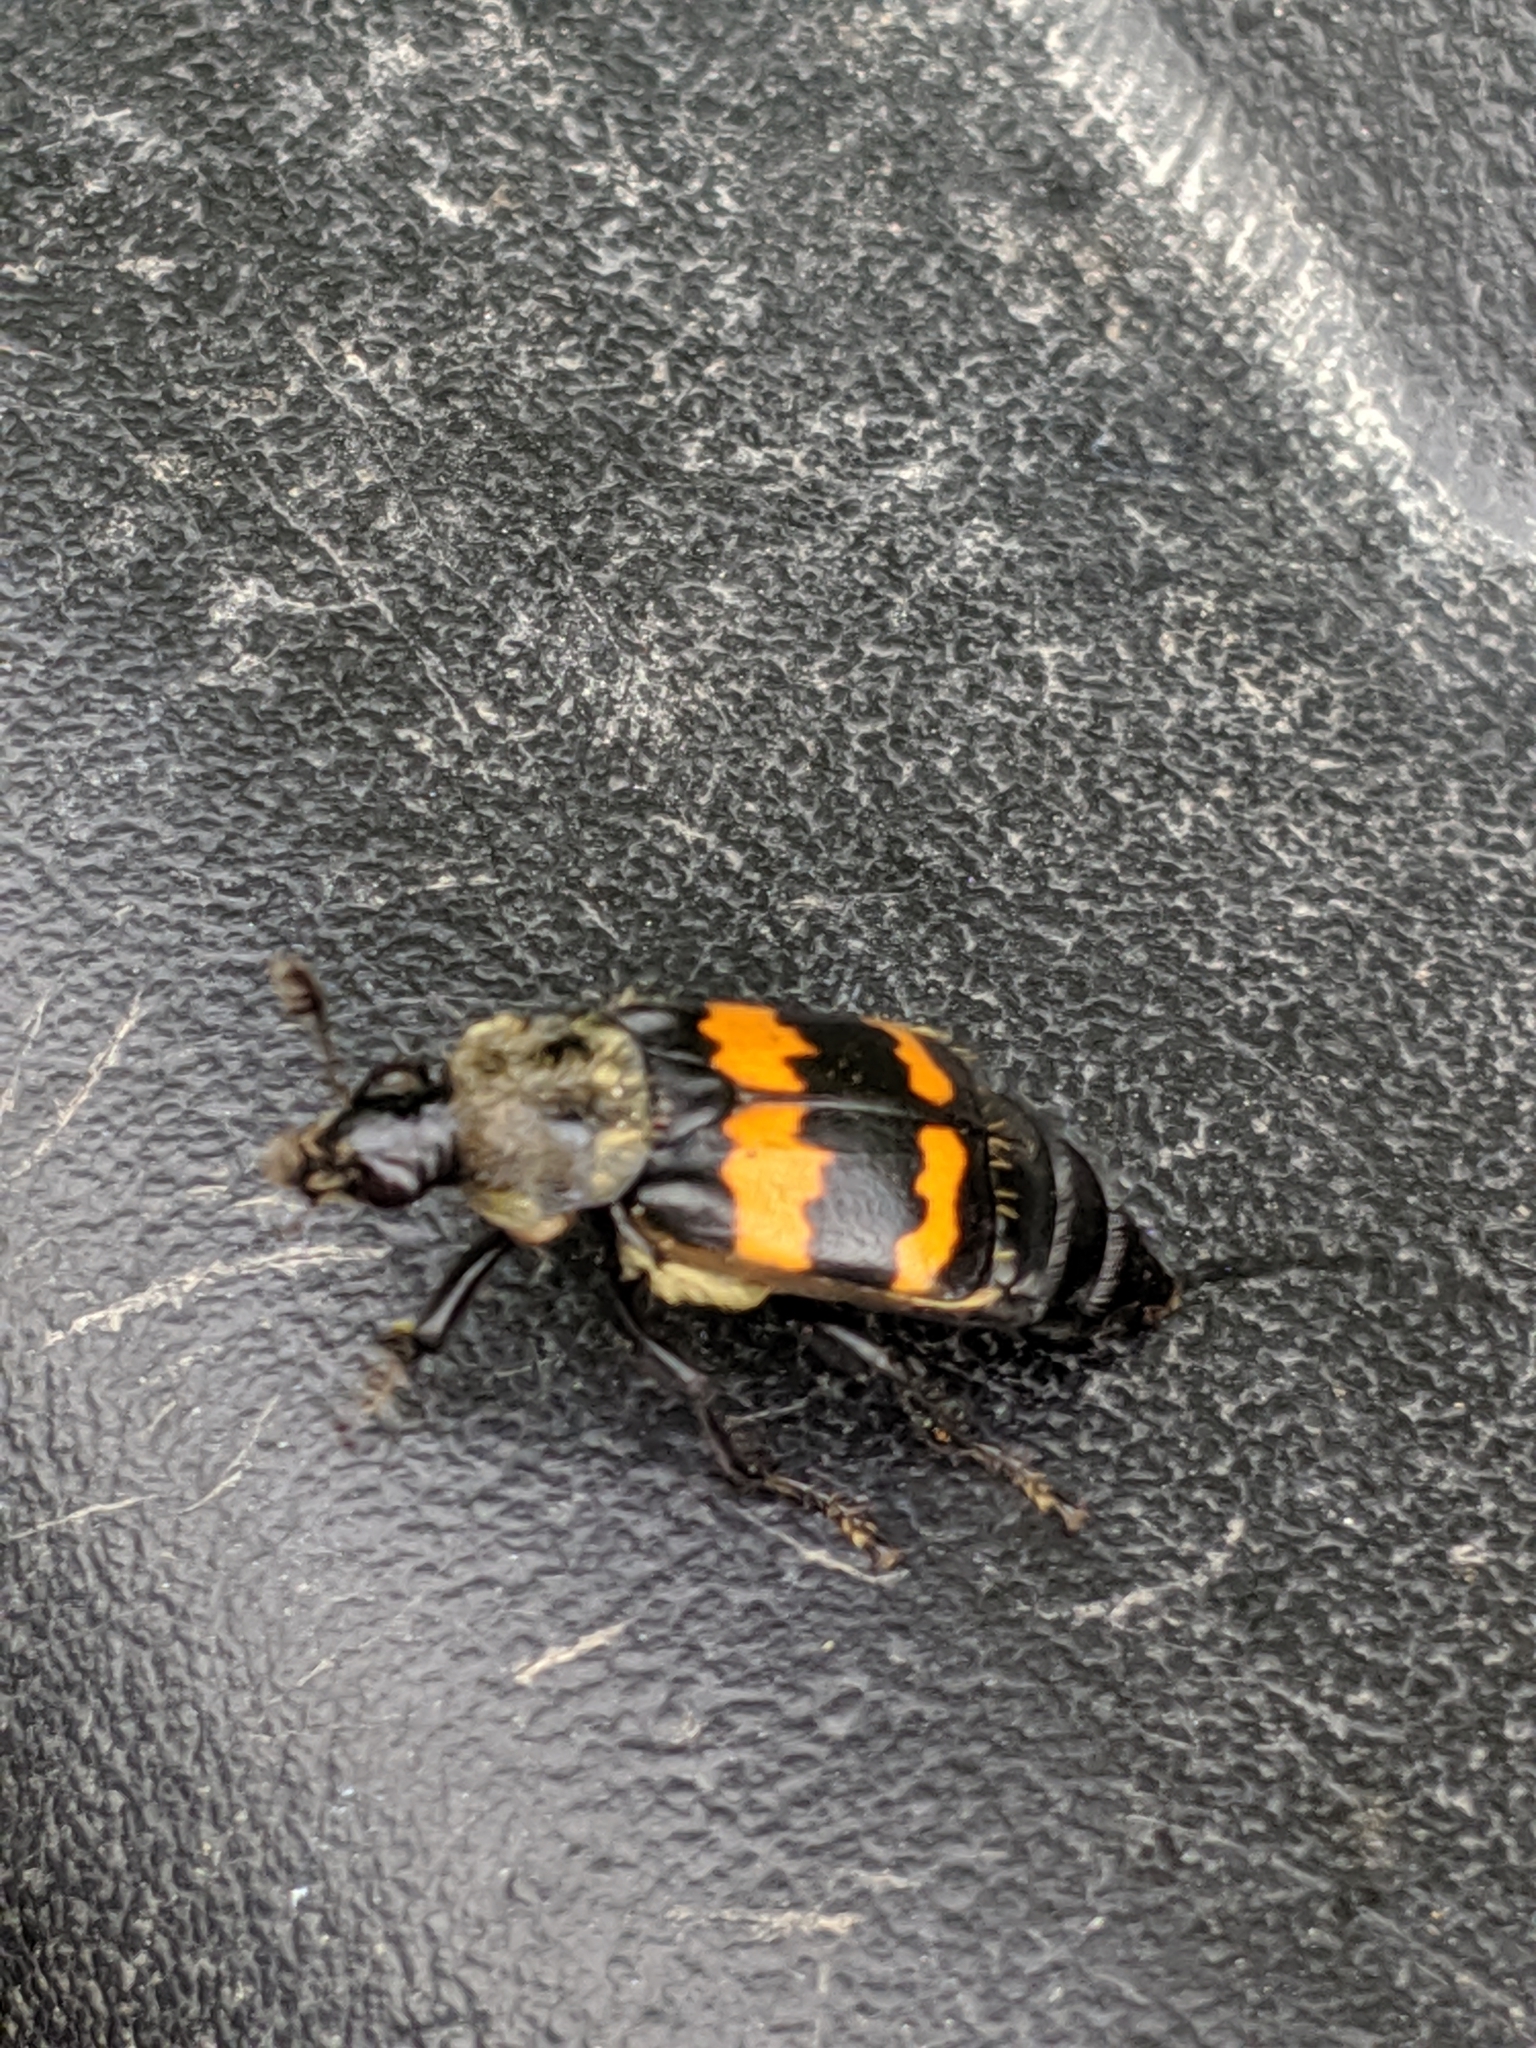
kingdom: Animalia
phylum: Arthropoda
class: Insecta
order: Coleoptera
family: Staphylinidae
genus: Nicrophorus
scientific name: Nicrophorus tomentosus
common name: Tomentose burying beetle
